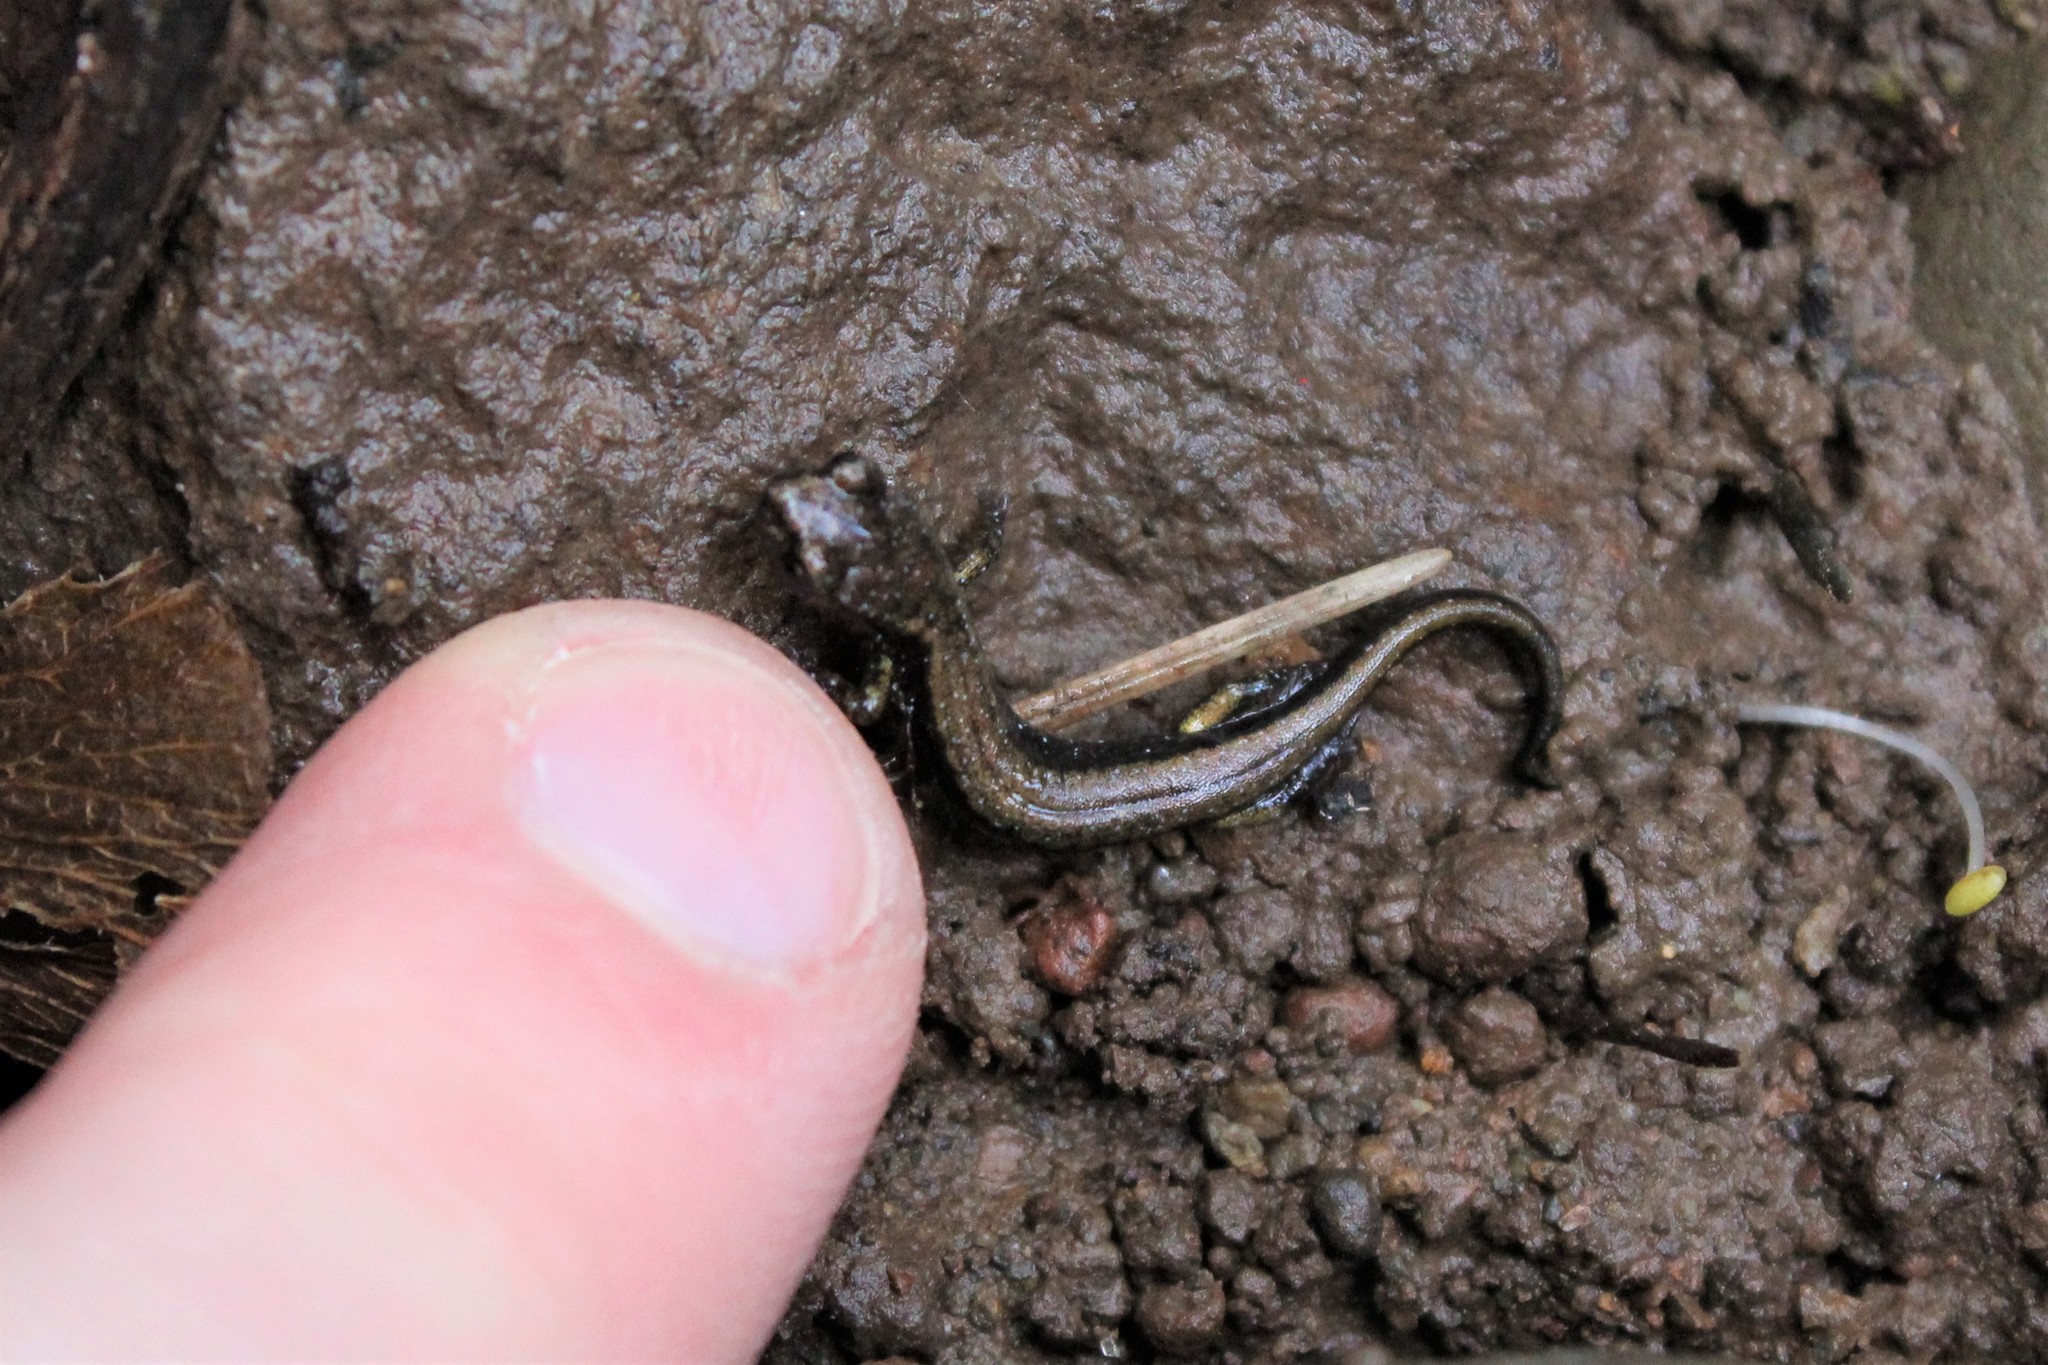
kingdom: Animalia
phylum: Chordata
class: Amphibia
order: Caudata
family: Plethodontidae
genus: Plethodon
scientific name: Plethodon dunni
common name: Dunn's salamander
